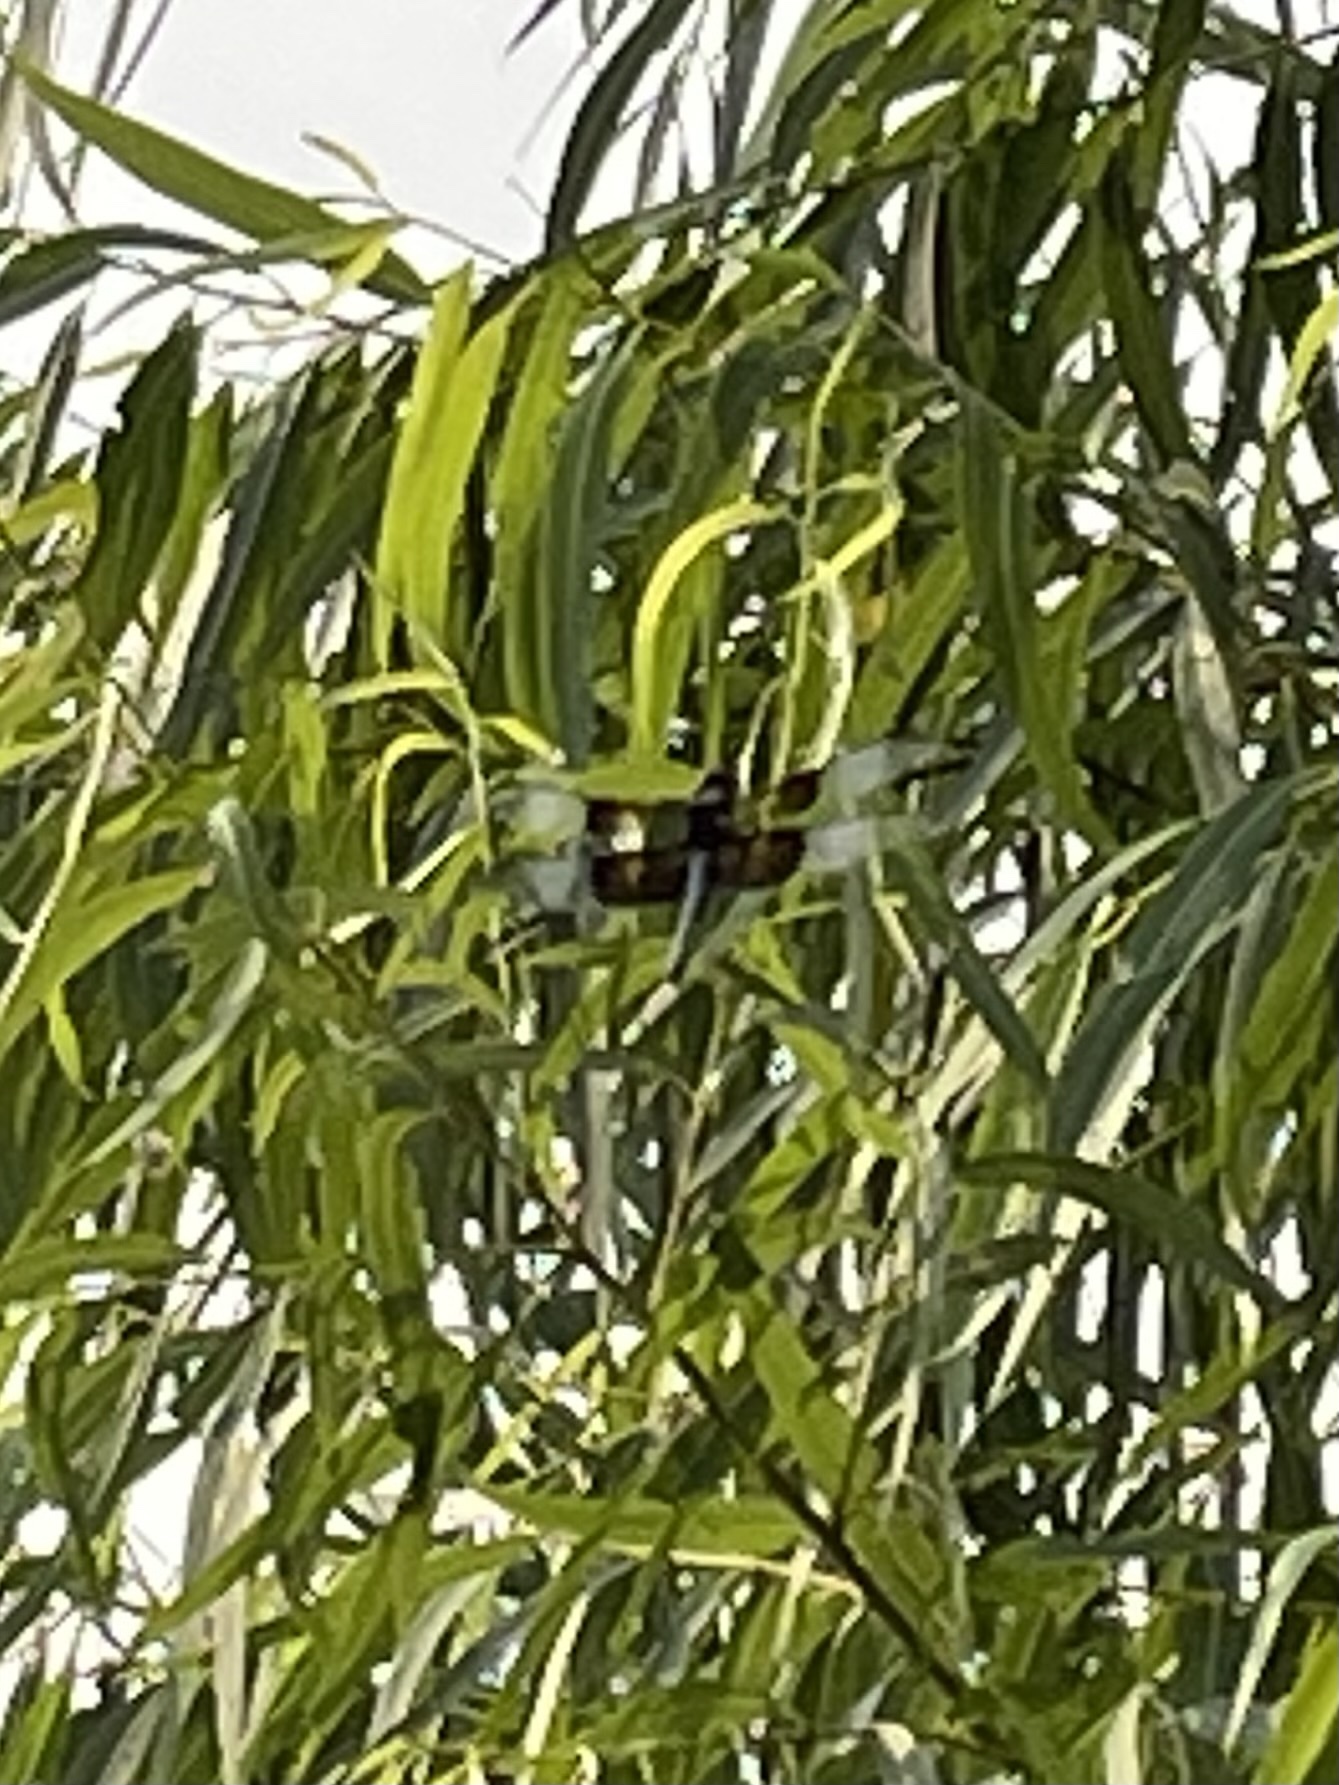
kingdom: Animalia
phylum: Arthropoda
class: Insecta
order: Odonata
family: Libellulidae
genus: Libellula
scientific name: Libellula luctuosa
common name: Widow skimmer
